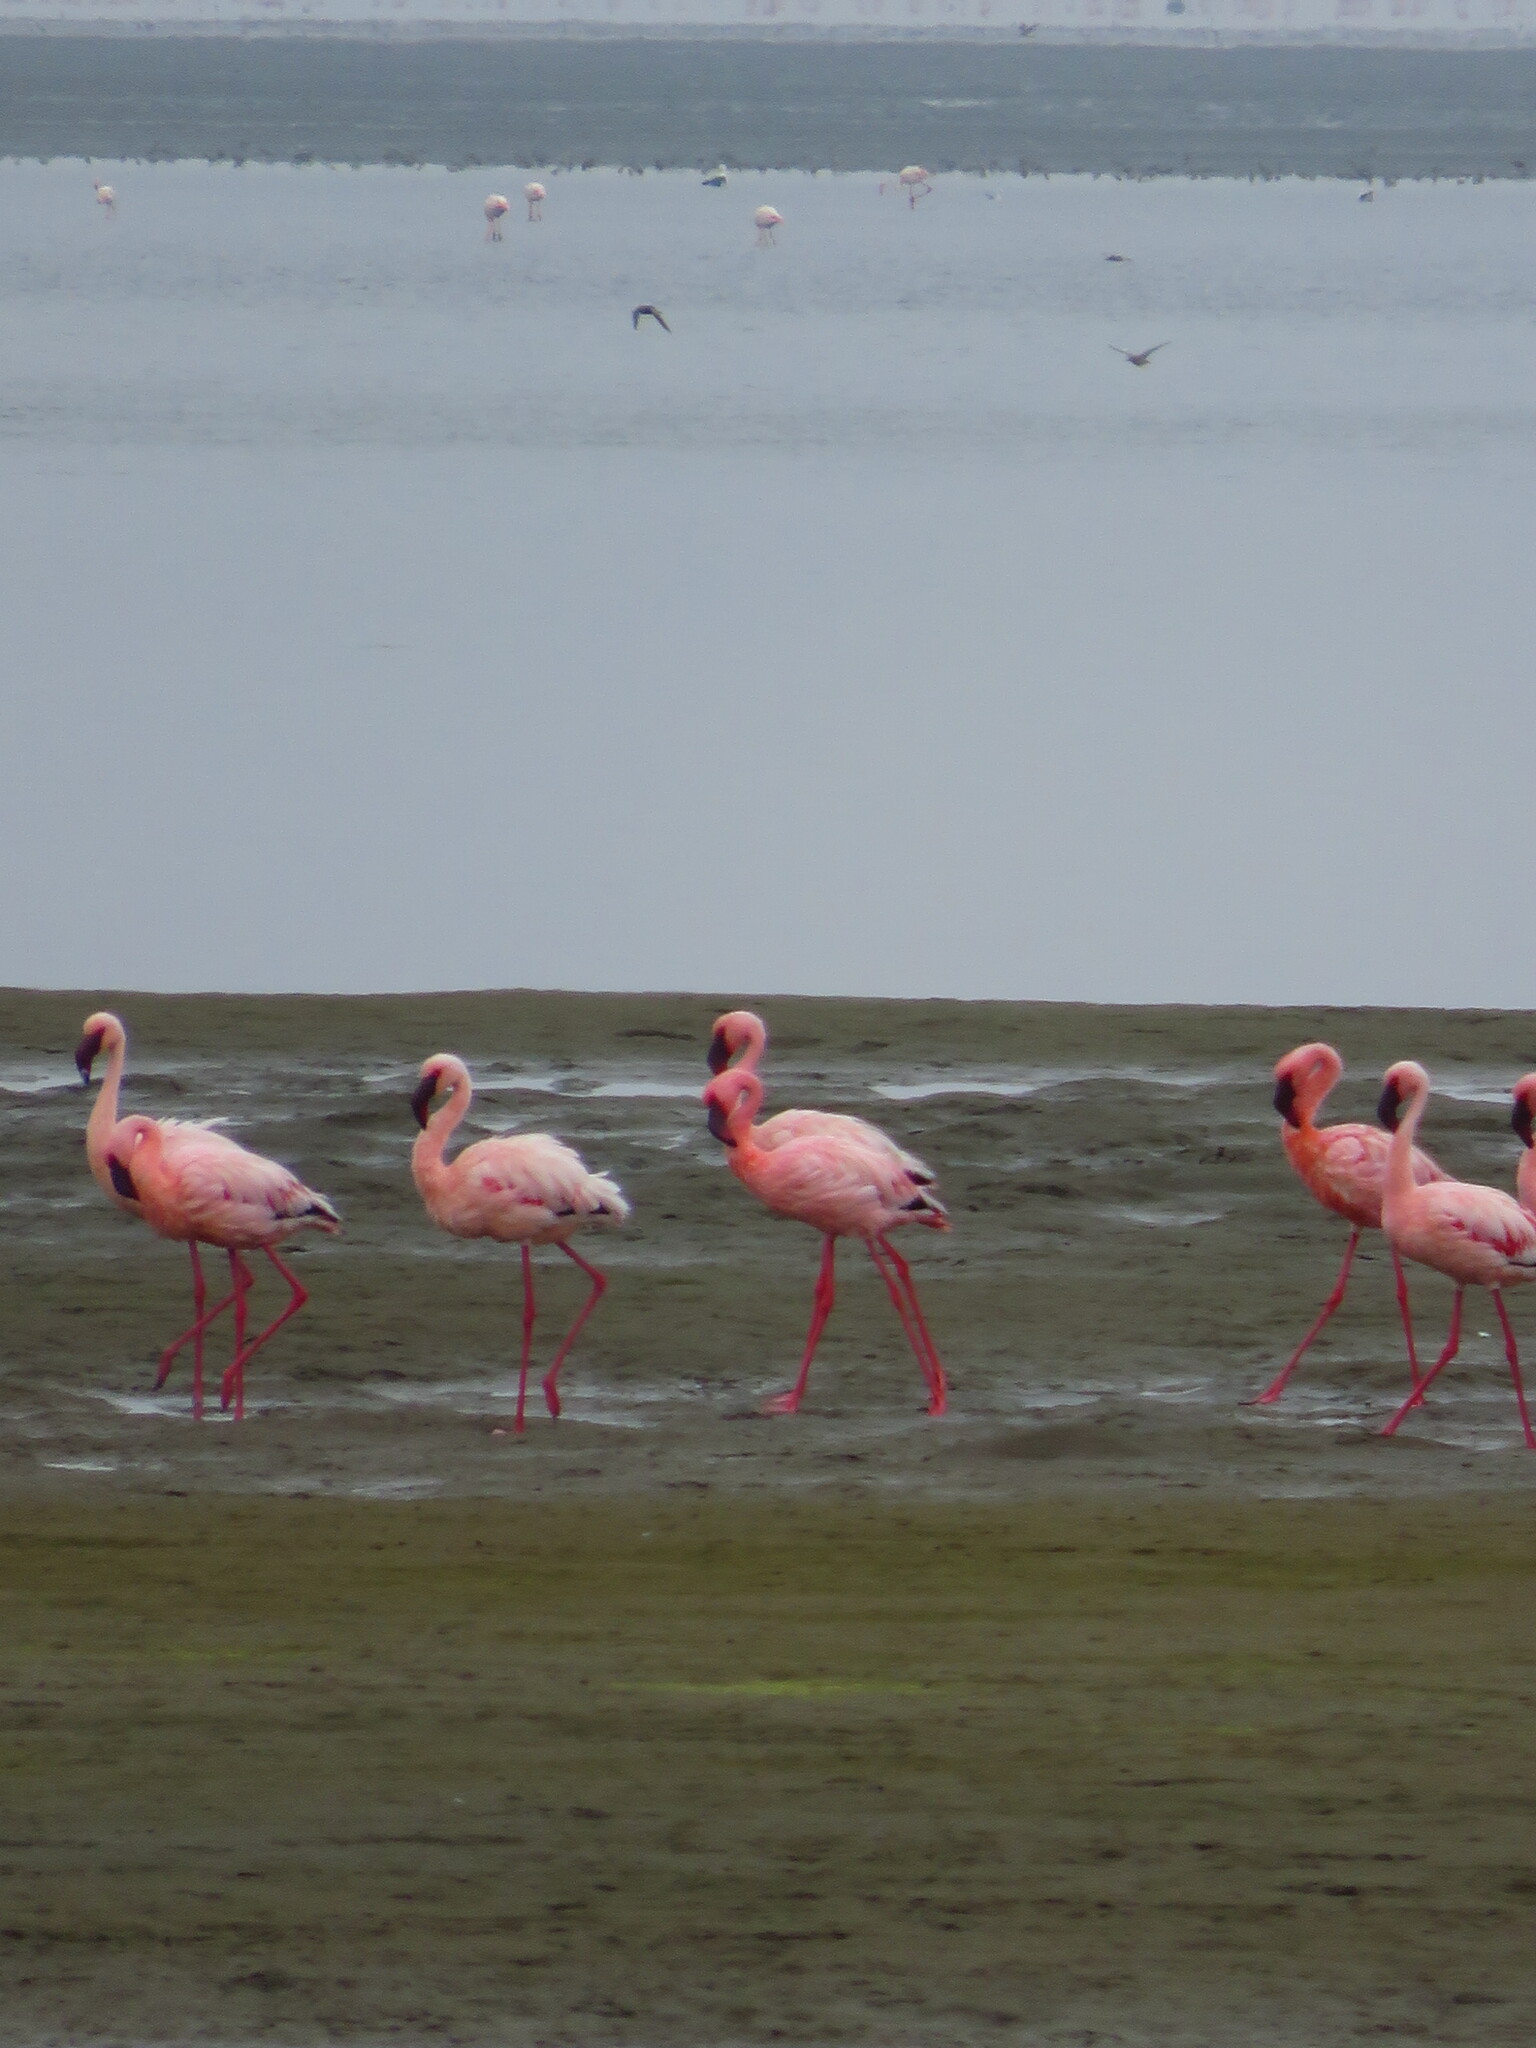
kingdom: Animalia
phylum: Chordata
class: Aves
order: Phoenicopteriformes
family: Phoenicopteridae
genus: Phoeniconaias
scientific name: Phoeniconaias minor
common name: Lesser flamingo
